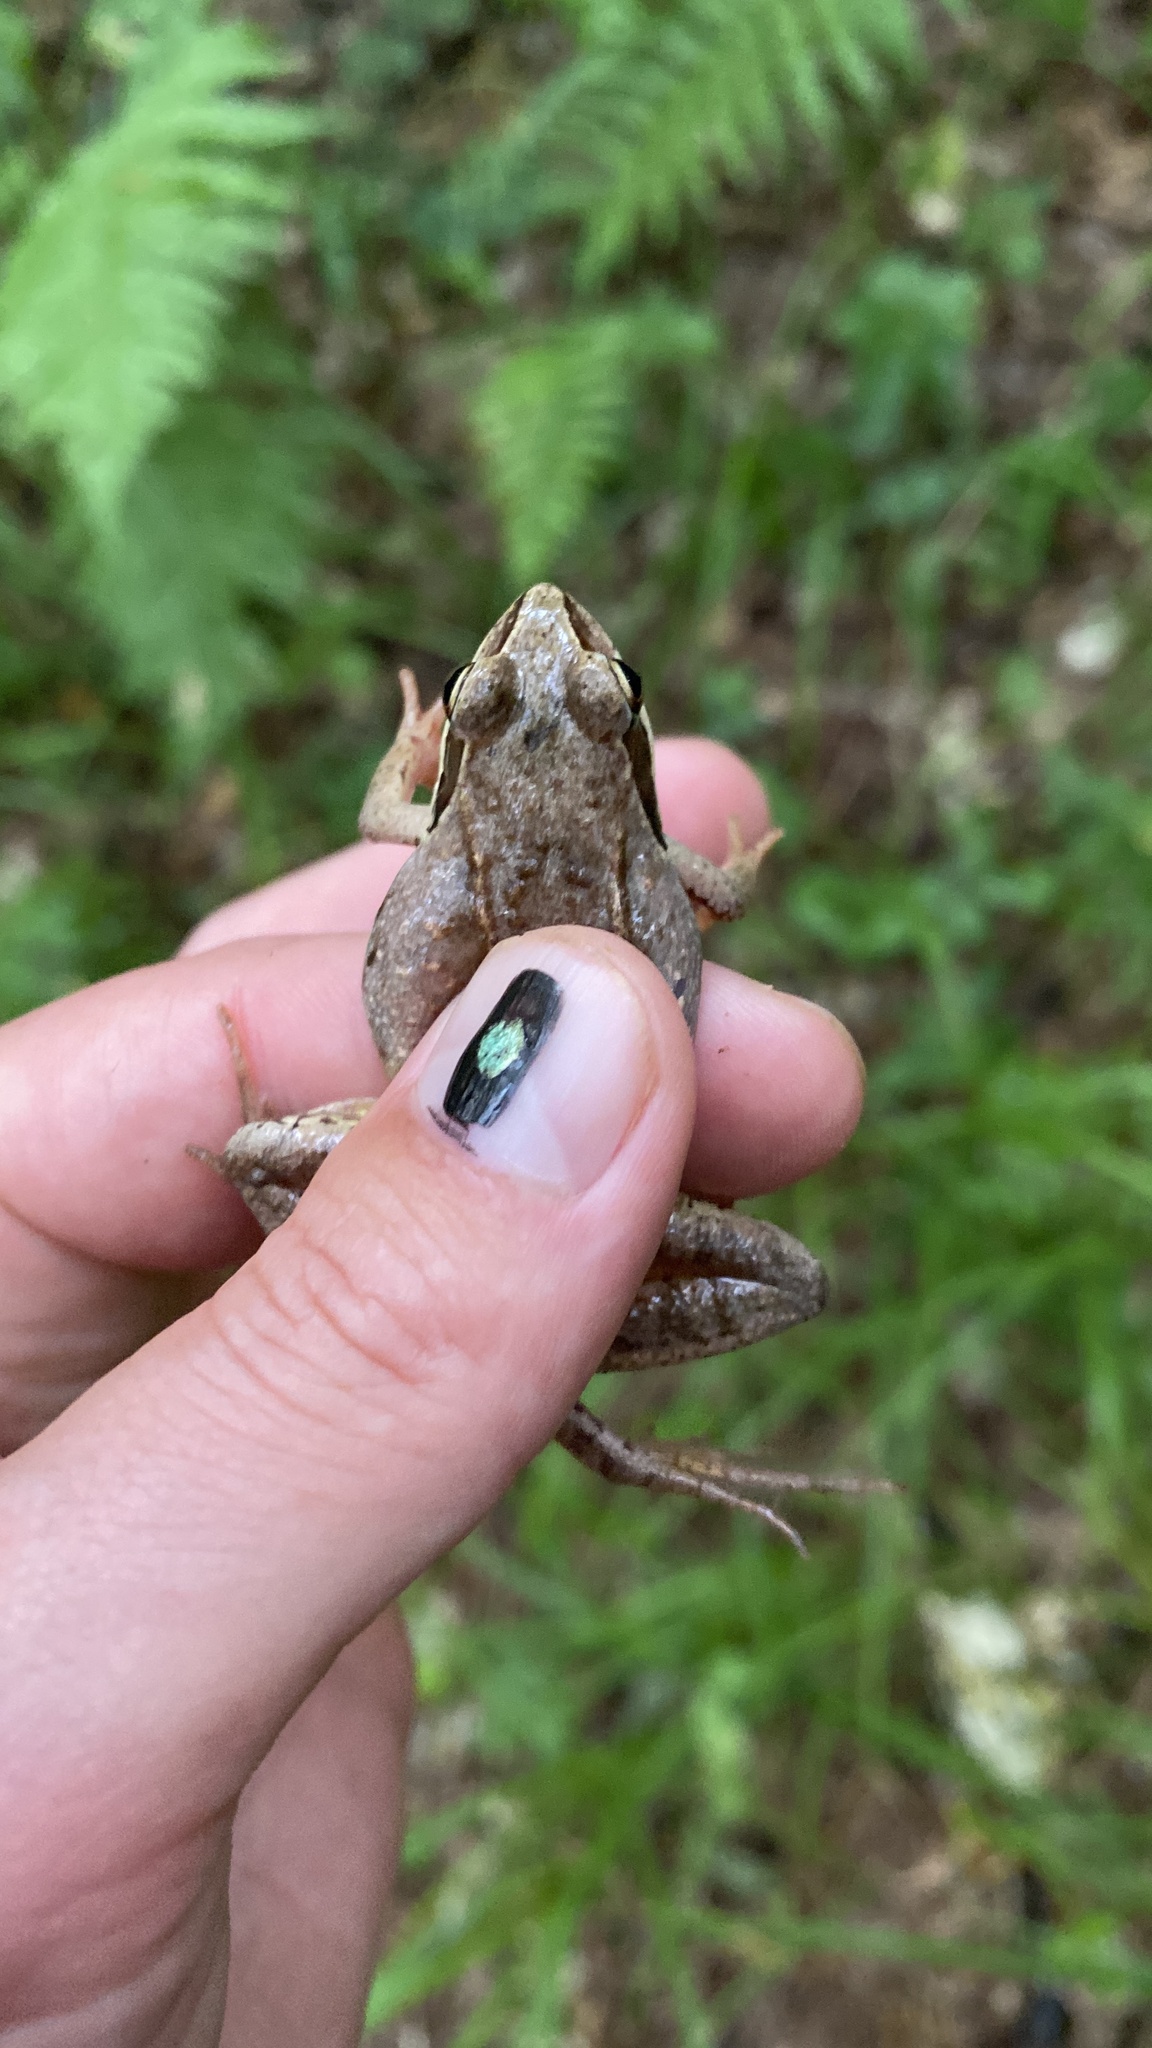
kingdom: Animalia
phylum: Chordata
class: Amphibia
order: Anura
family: Ranidae
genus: Rana
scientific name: Rana arvalis
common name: Moor frog
